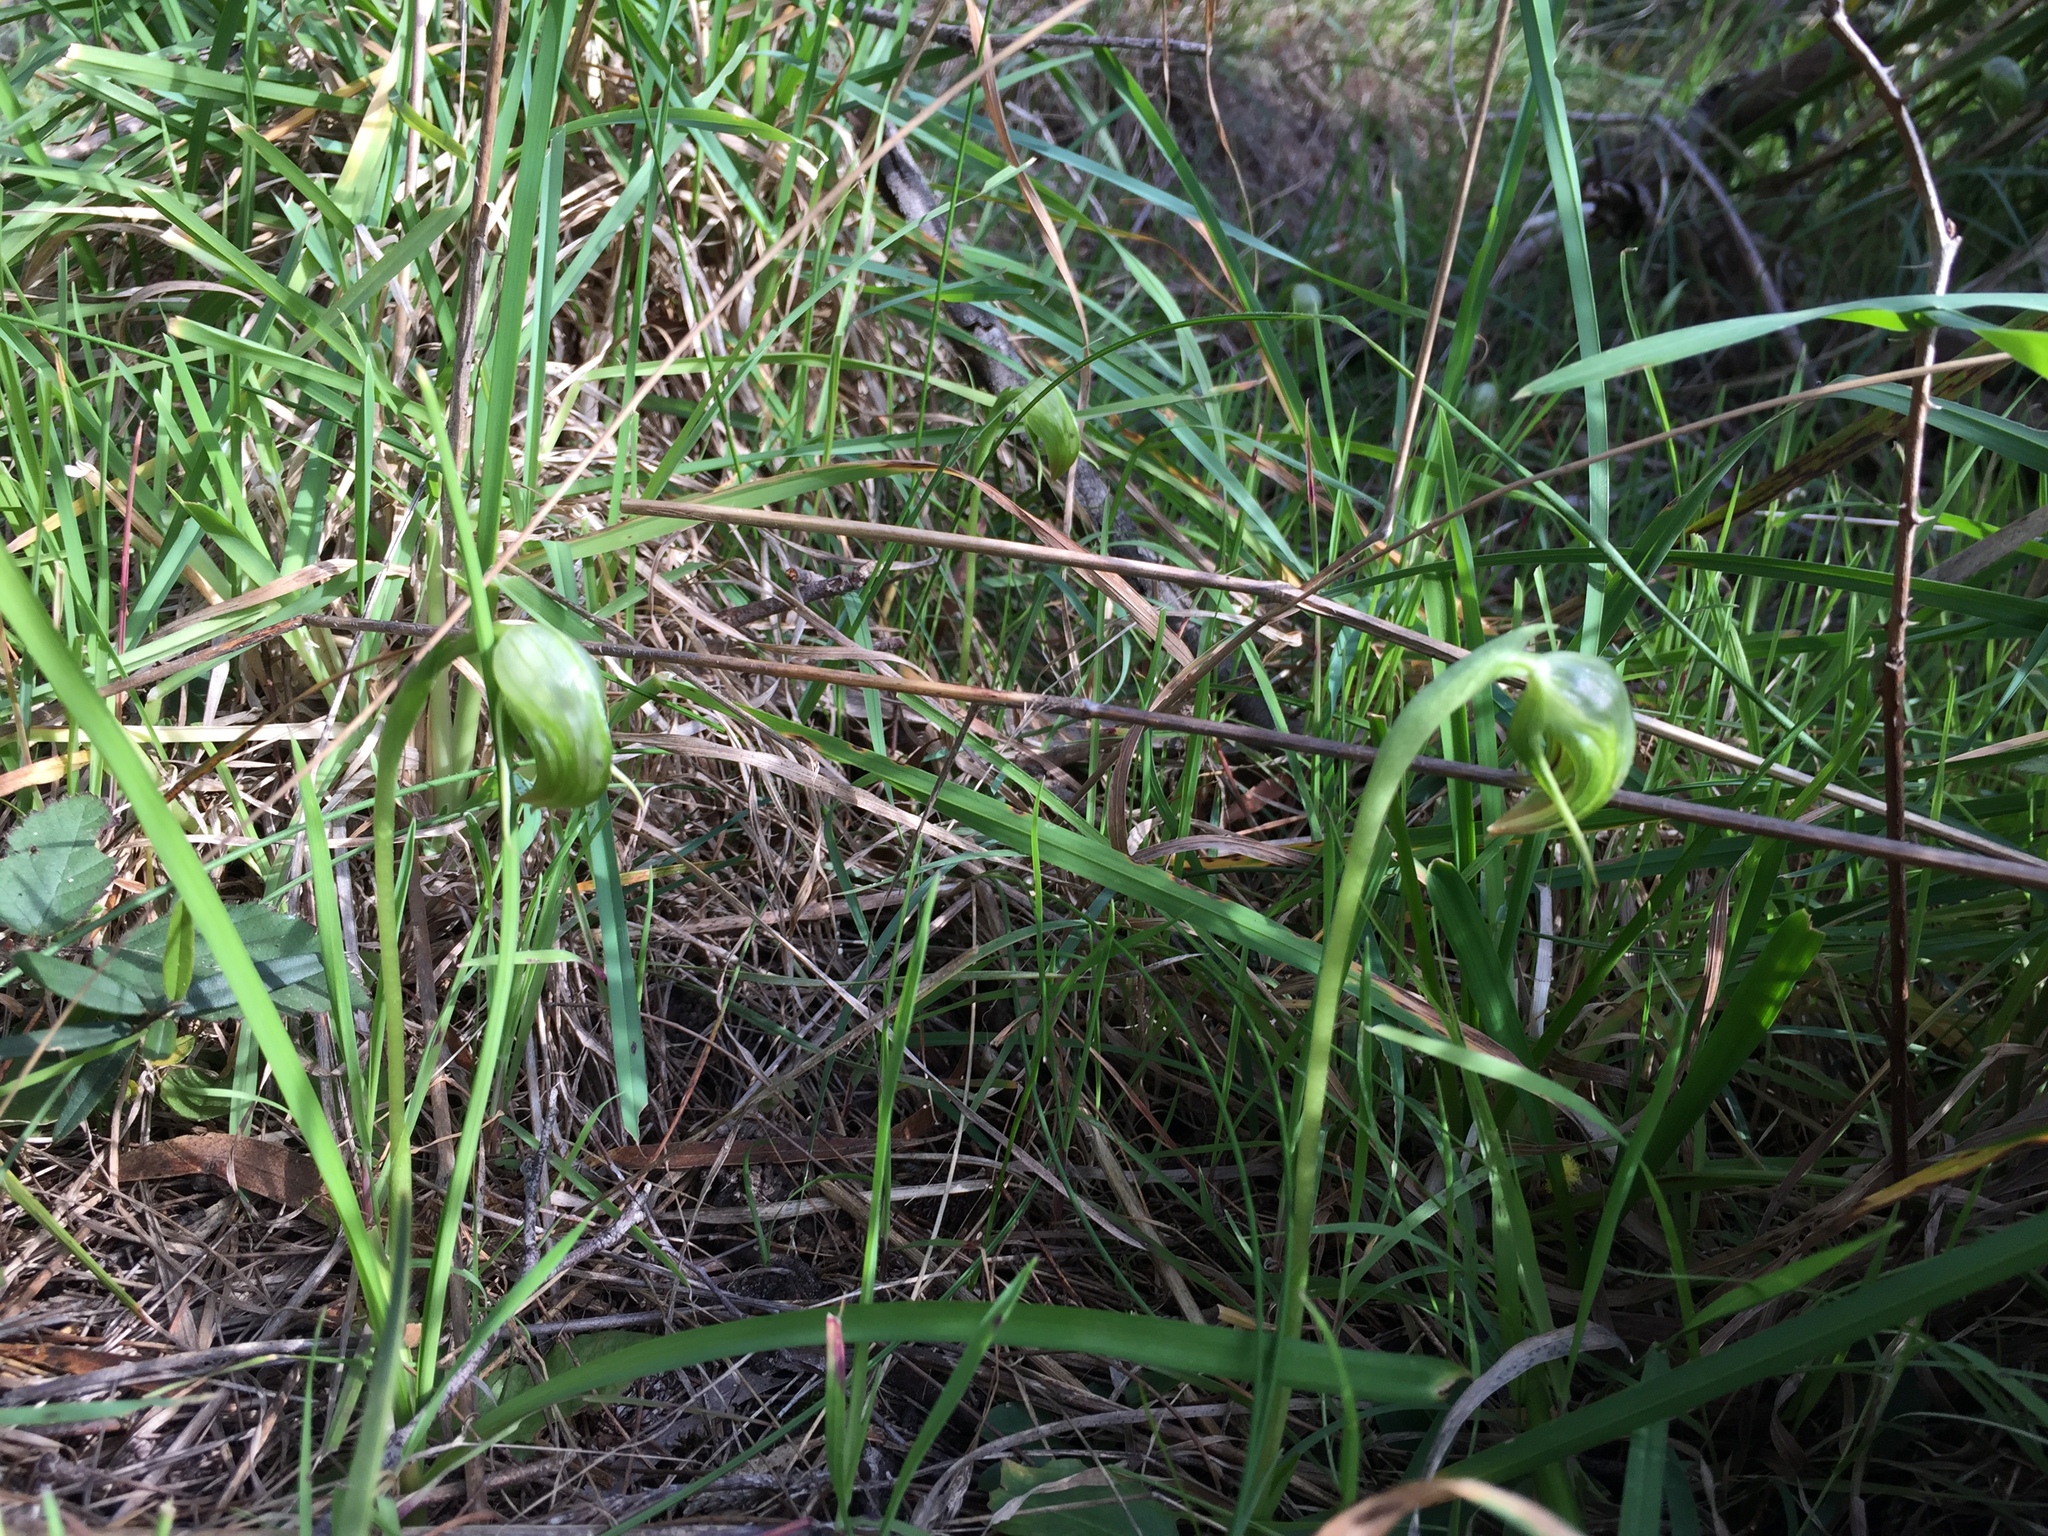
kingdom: Plantae
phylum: Tracheophyta
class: Liliopsida
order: Asparagales
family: Orchidaceae
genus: Pterostylis
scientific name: Pterostylis nutans
